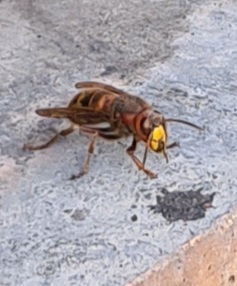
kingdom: Animalia
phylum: Arthropoda
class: Insecta
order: Hymenoptera
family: Vespidae
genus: Vespa
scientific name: Vespa crabro
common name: Hornet
